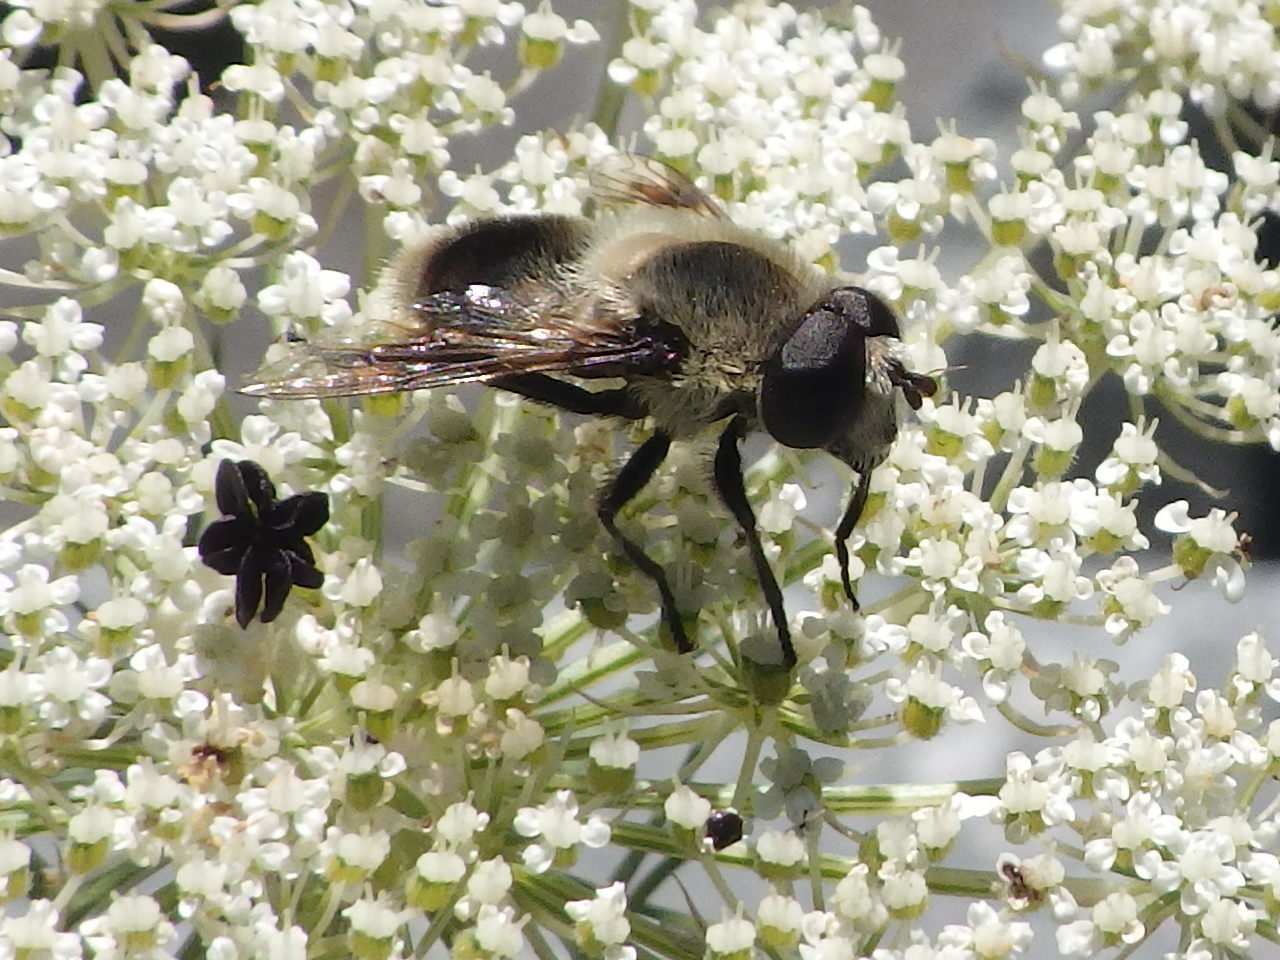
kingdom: Animalia
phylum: Arthropoda
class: Insecta
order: Diptera
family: Syrphidae
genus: Eristalis
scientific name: Eristalis anthophorina
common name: Orange-spotted drone fly
